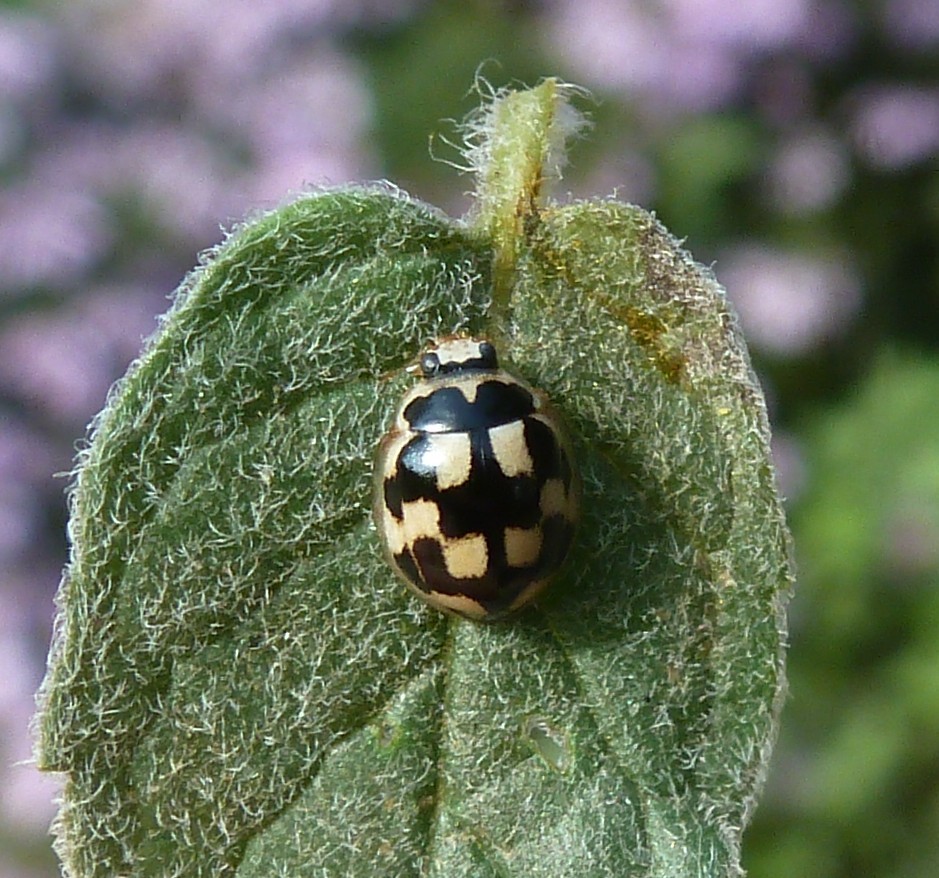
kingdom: Animalia
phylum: Arthropoda
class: Insecta
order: Coleoptera
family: Coccinellidae
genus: Propylaea
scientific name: Propylaea quatuordecimpunctata
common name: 14-spotted ladybird beetle
